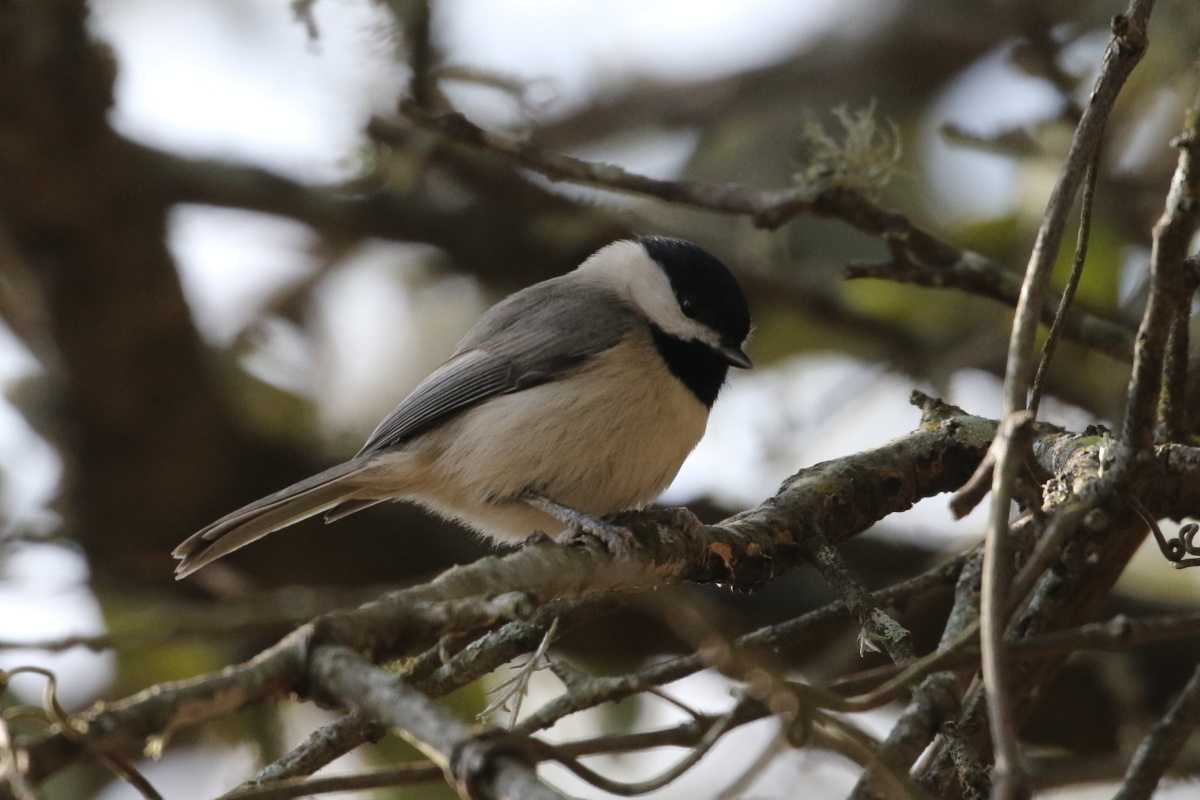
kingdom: Animalia
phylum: Chordata
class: Aves
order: Passeriformes
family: Paridae
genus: Poecile
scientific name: Poecile carolinensis
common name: Carolina chickadee
